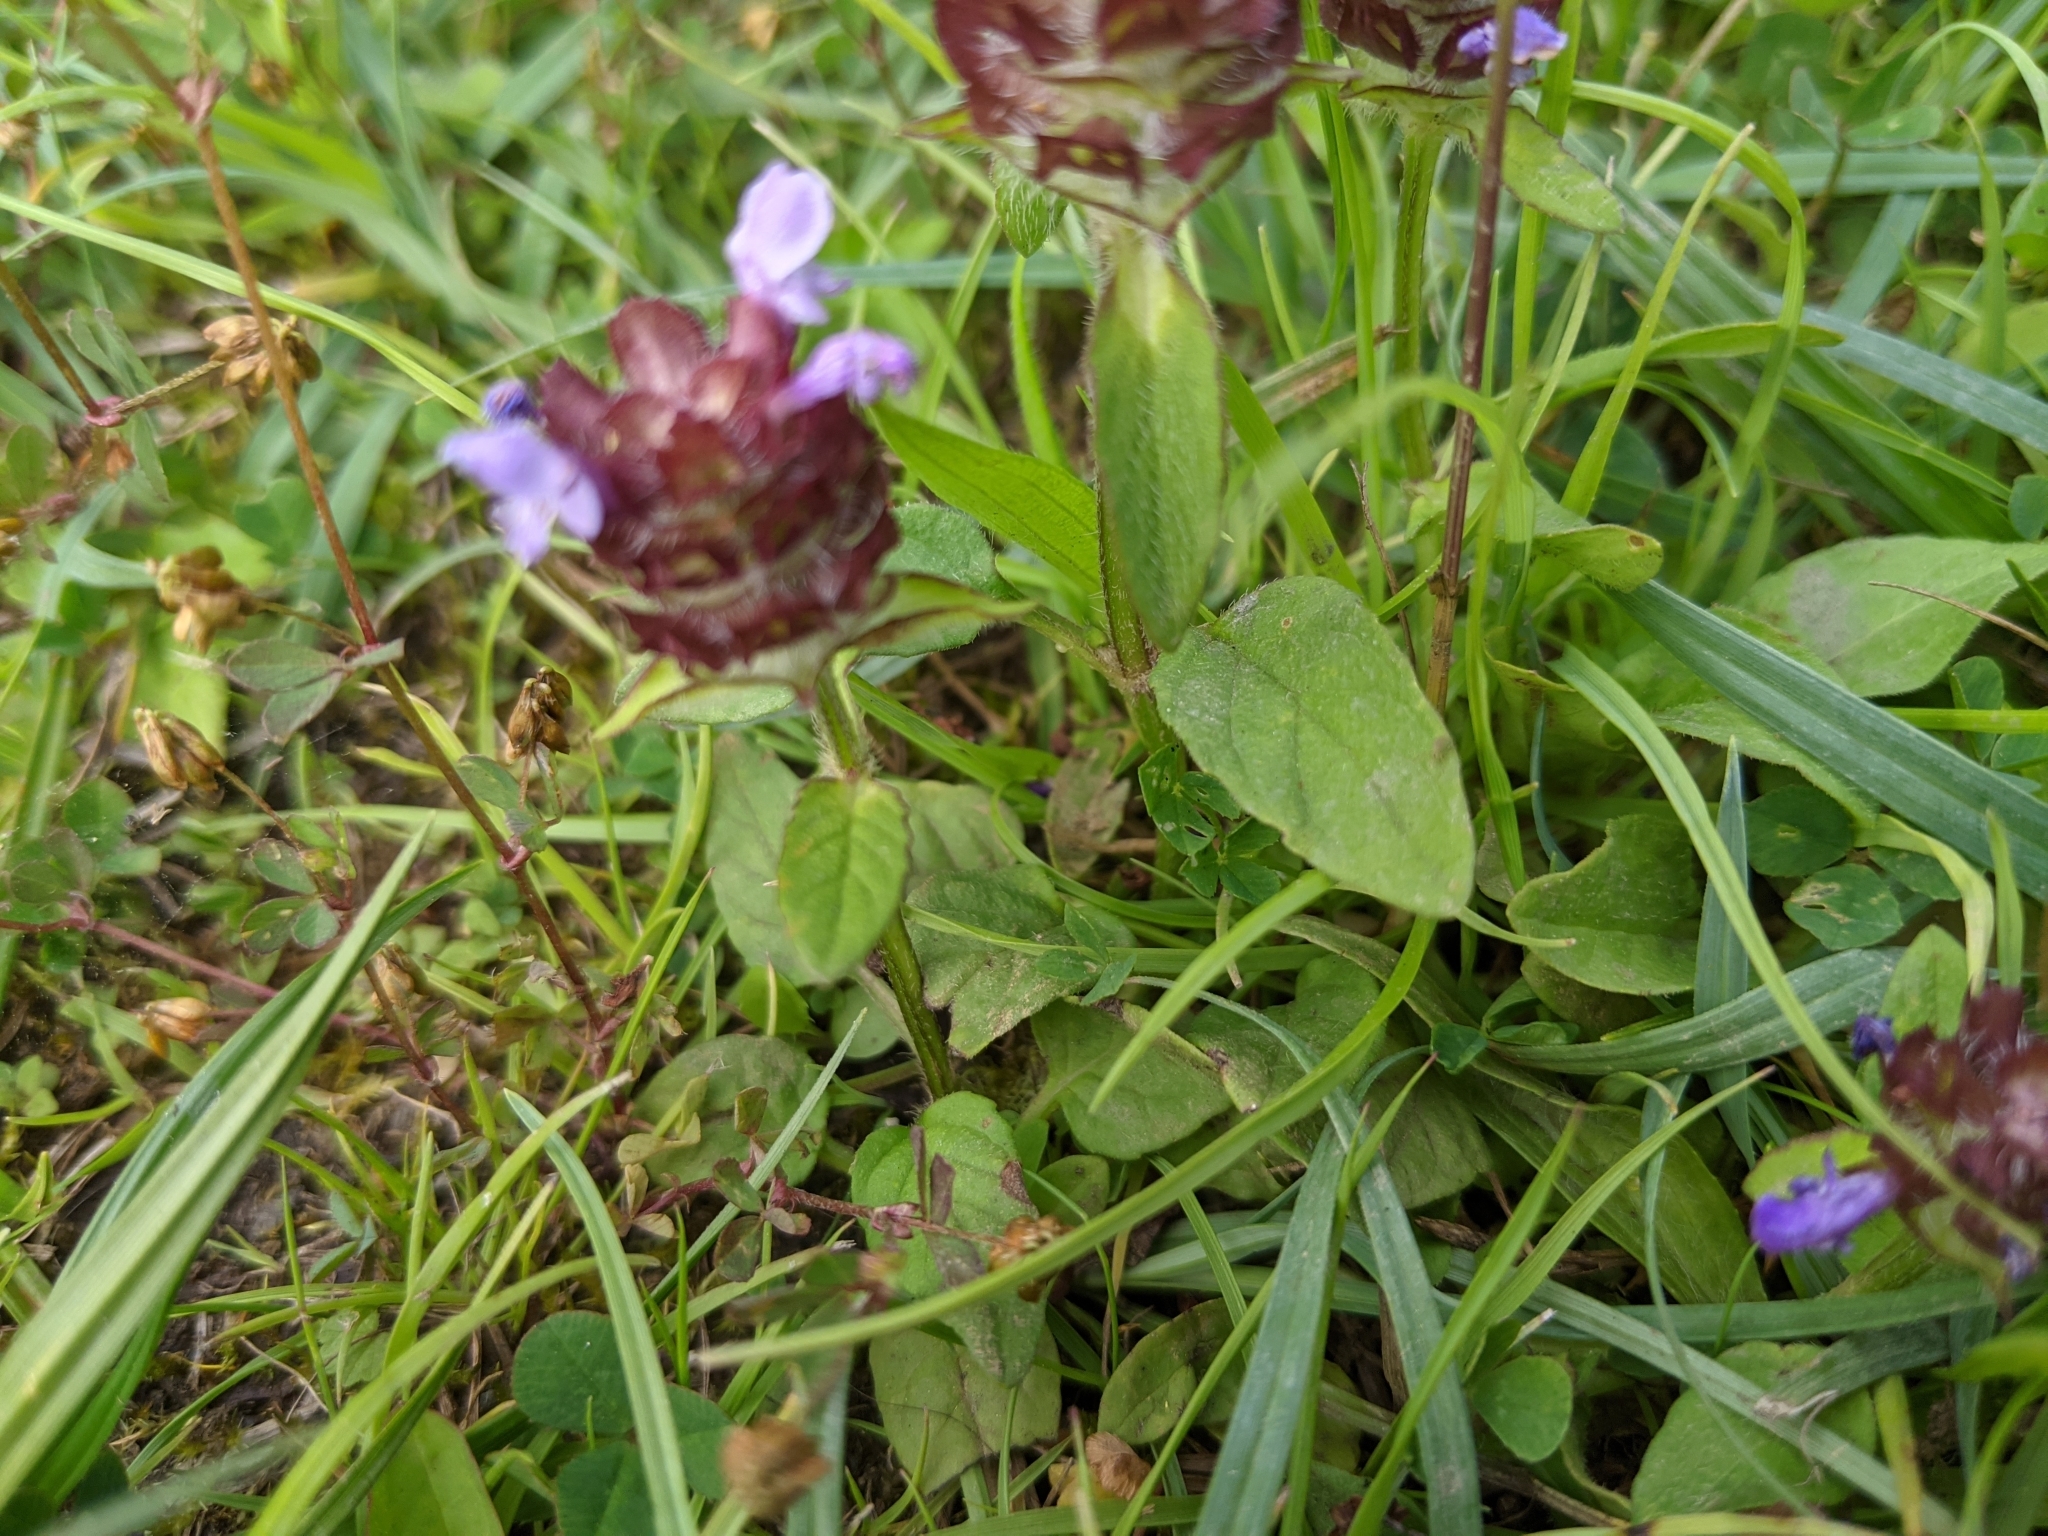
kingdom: Plantae
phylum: Tracheophyta
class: Magnoliopsida
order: Lamiales
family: Lamiaceae
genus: Prunella
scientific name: Prunella vulgaris
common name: Heal-all
